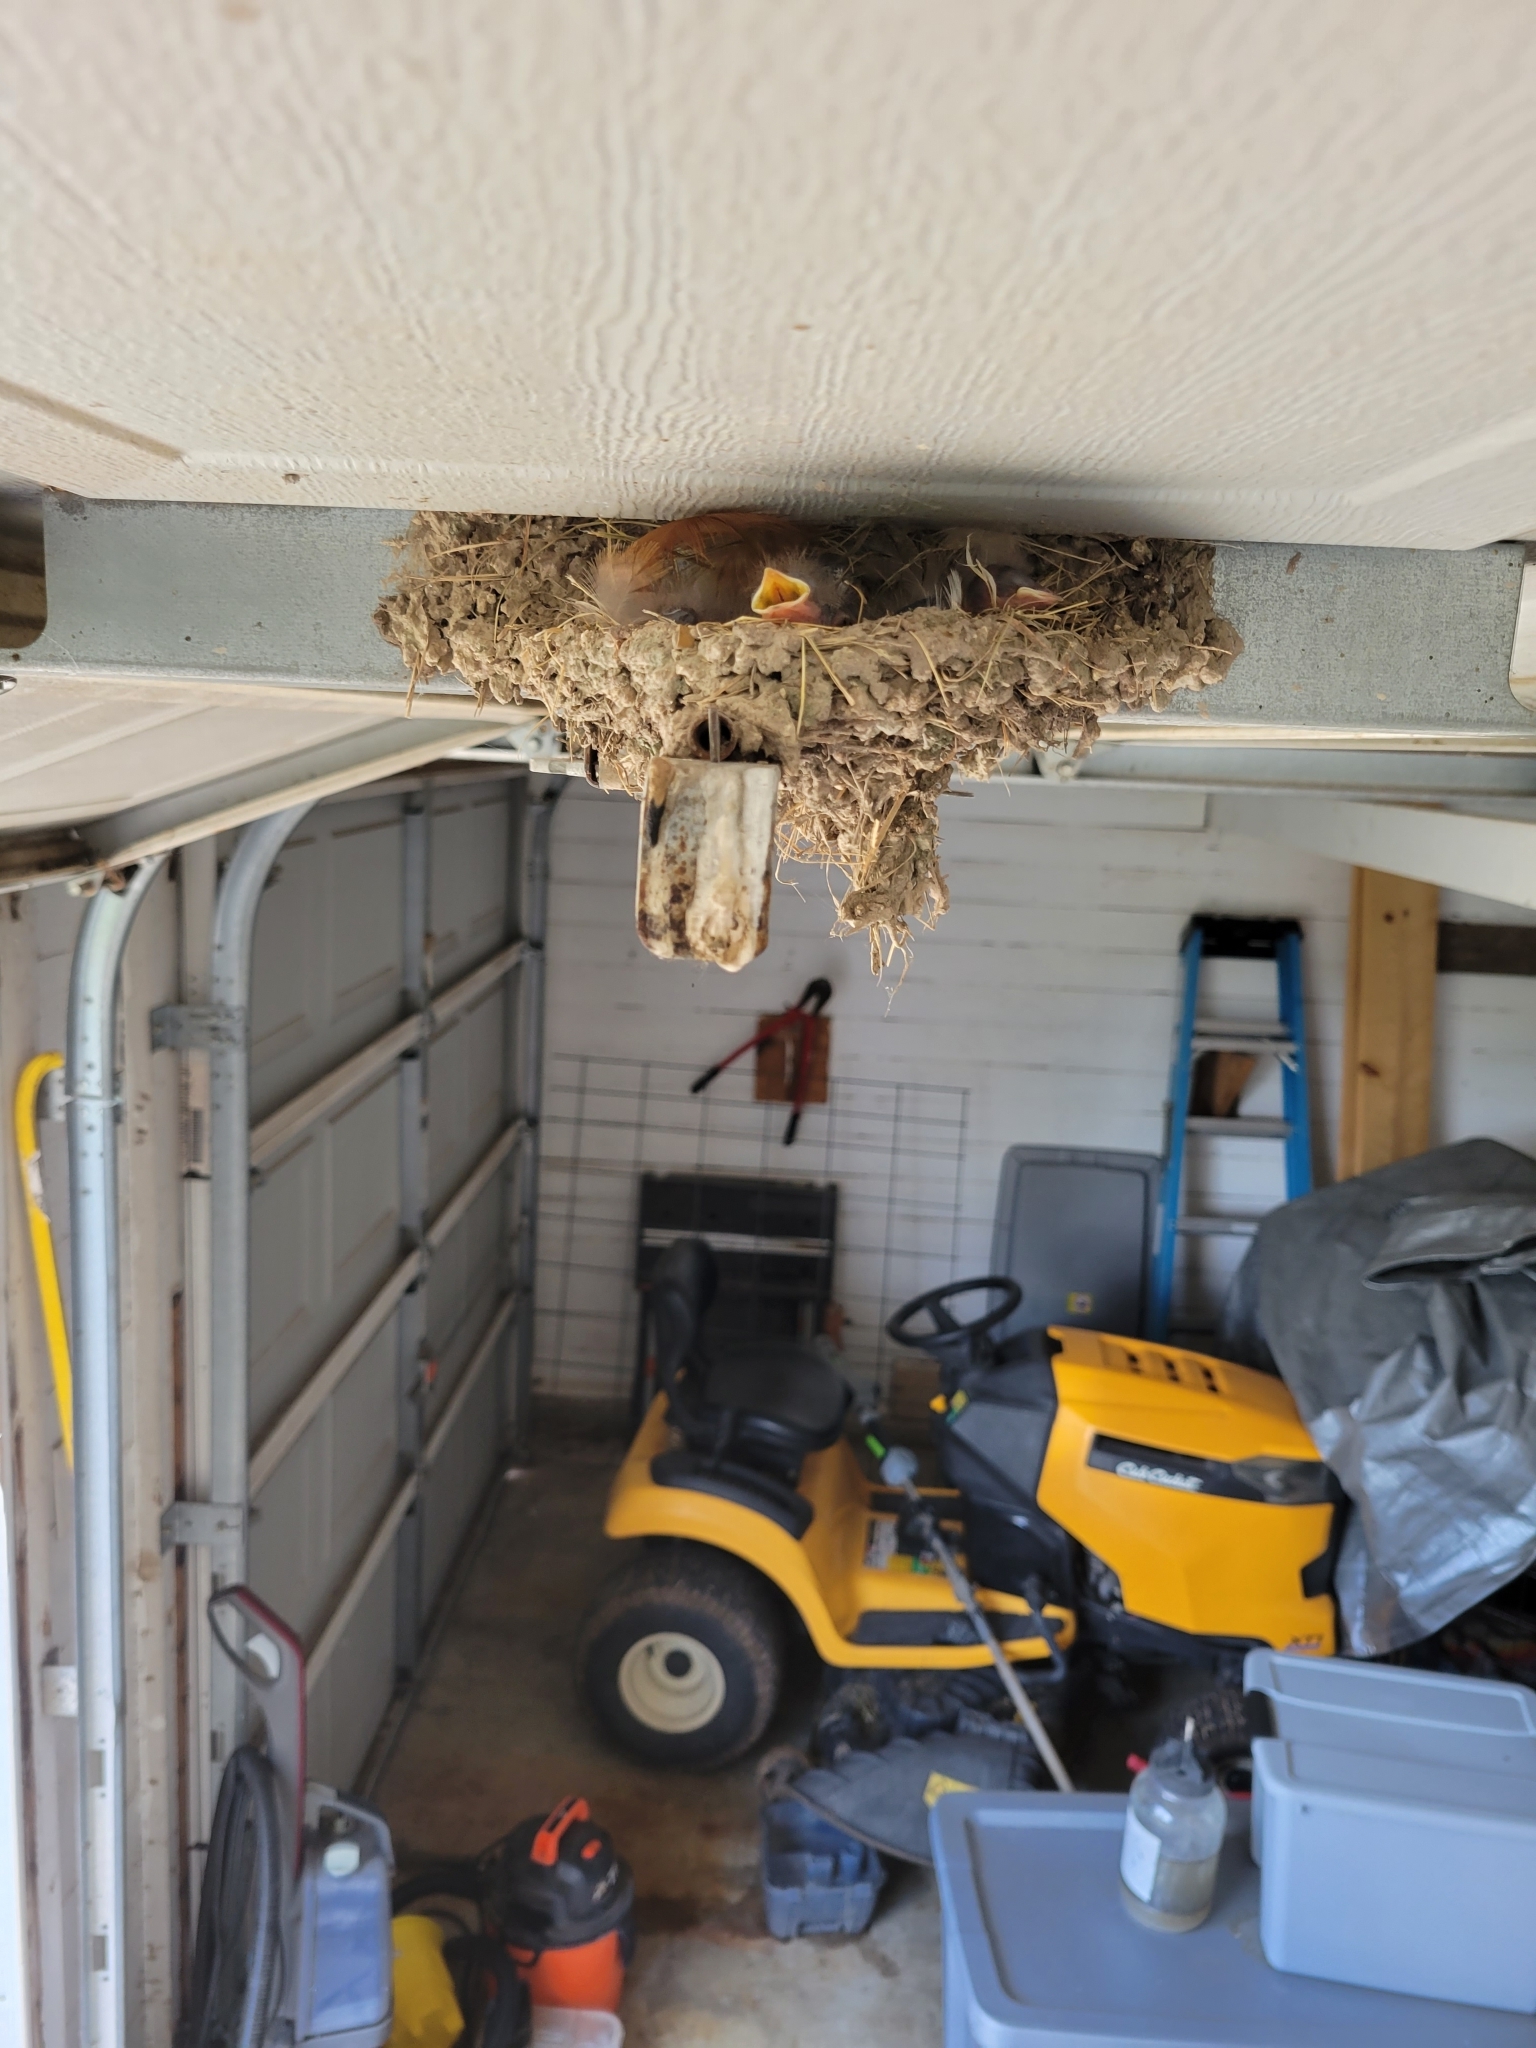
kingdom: Animalia
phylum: Chordata
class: Aves
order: Passeriformes
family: Hirundinidae
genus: Hirundo
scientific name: Hirundo rustica
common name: Barn swallow
